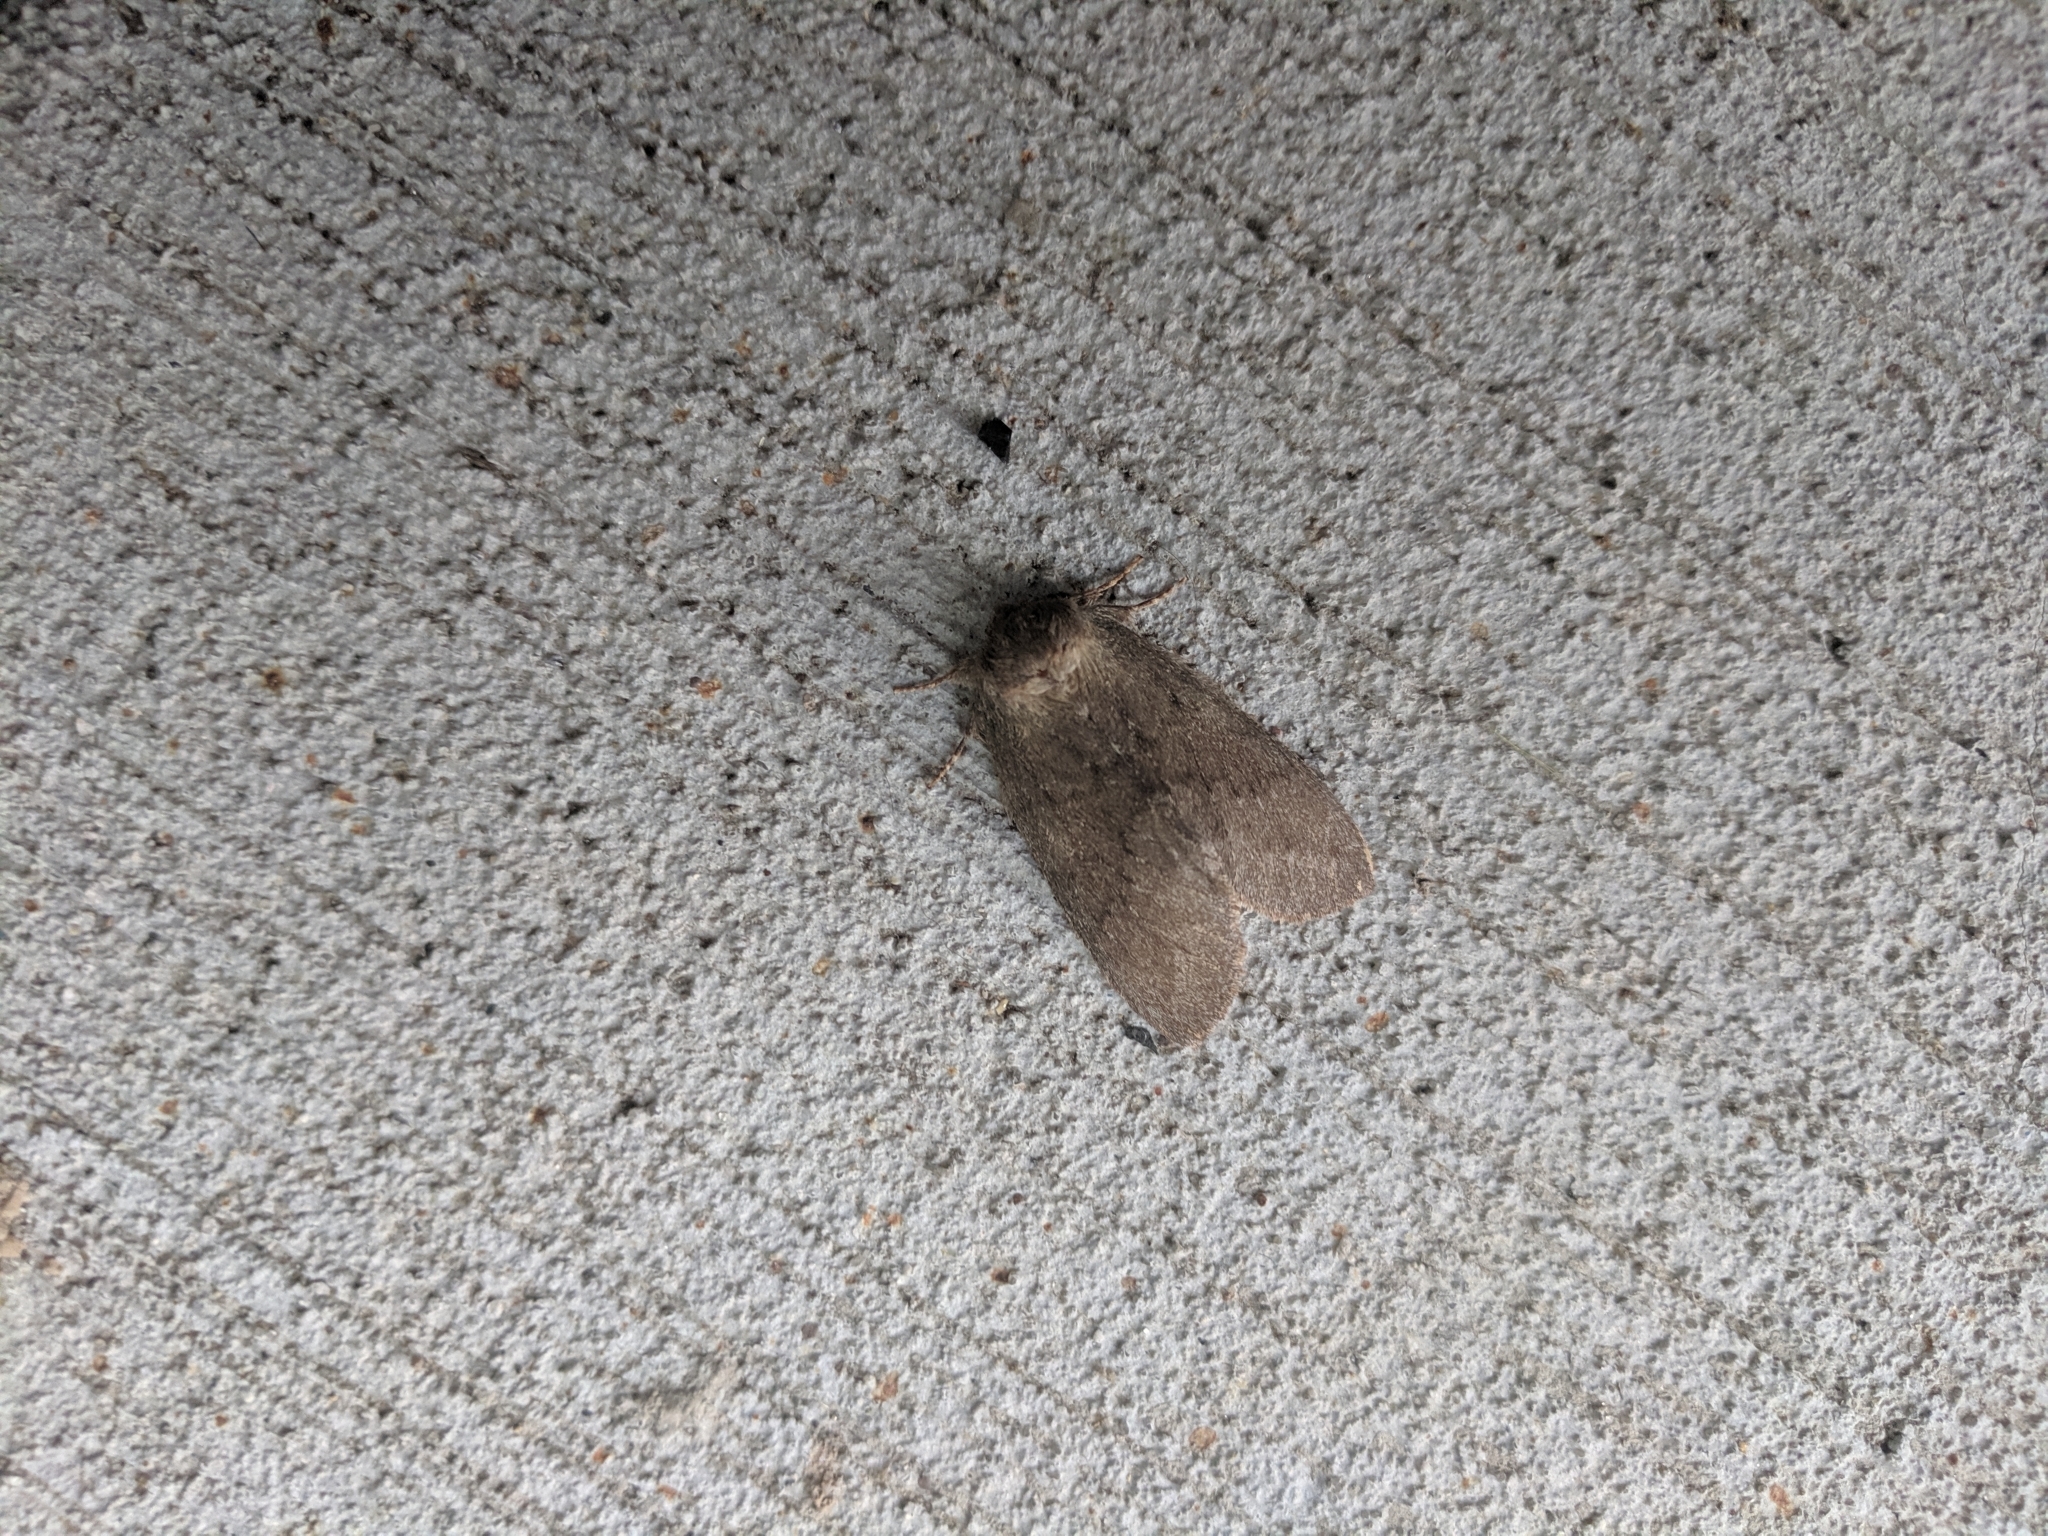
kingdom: Animalia
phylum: Arthropoda
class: Insecta
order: Lepidoptera
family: Notodontidae
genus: Misogada
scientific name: Misogada unicolor
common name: Drab prominent
